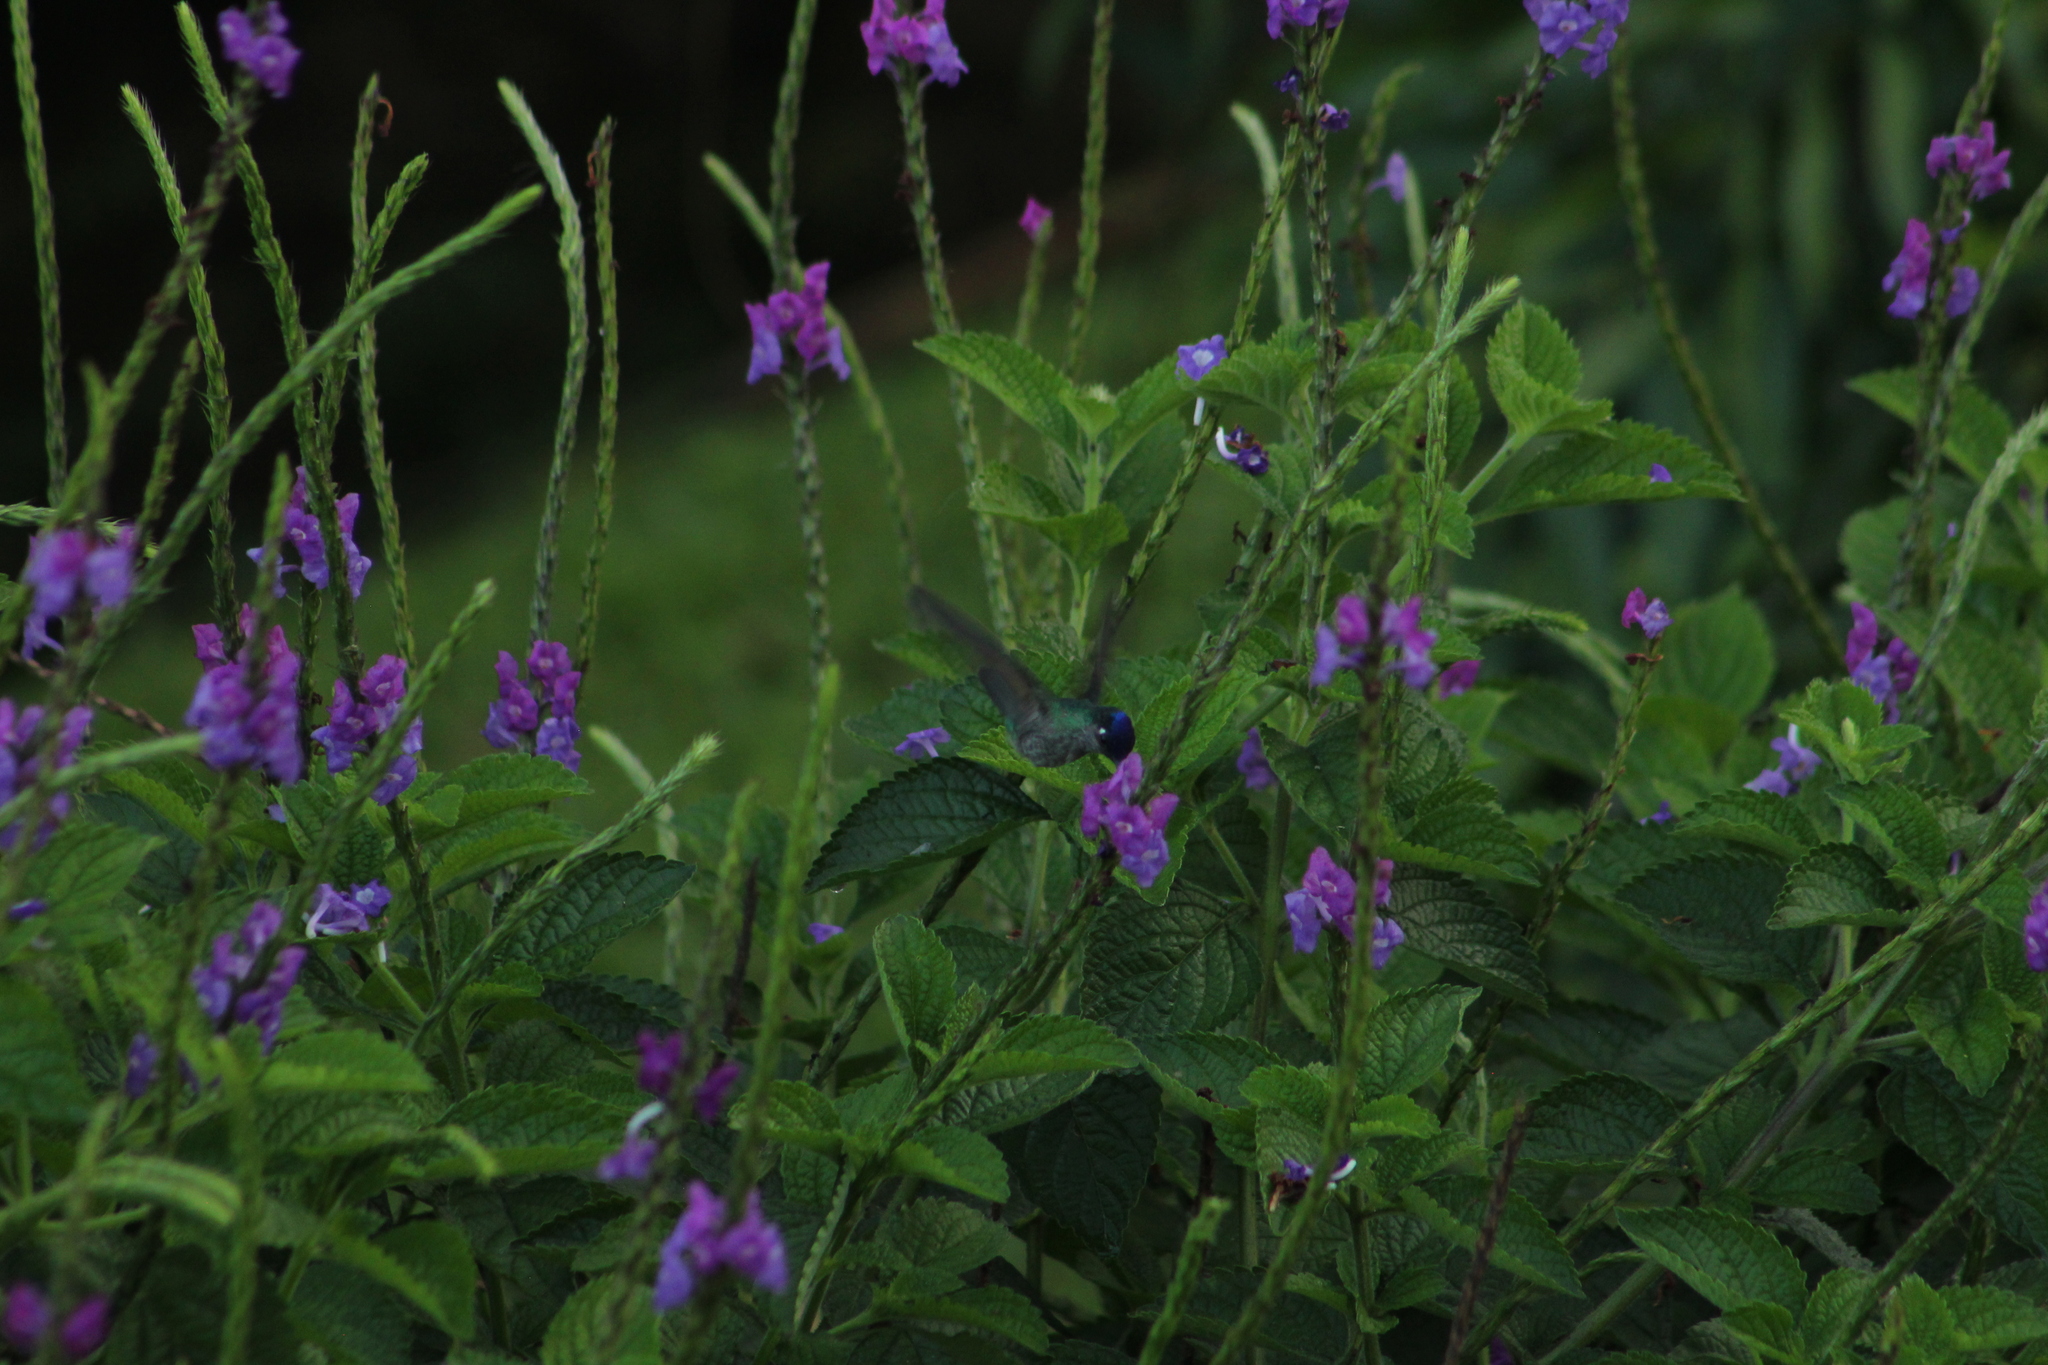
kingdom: Animalia
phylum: Chordata
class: Aves
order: Apodiformes
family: Trochilidae
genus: Klais
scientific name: Klais guimeti
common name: Violet-headed hummingbird
